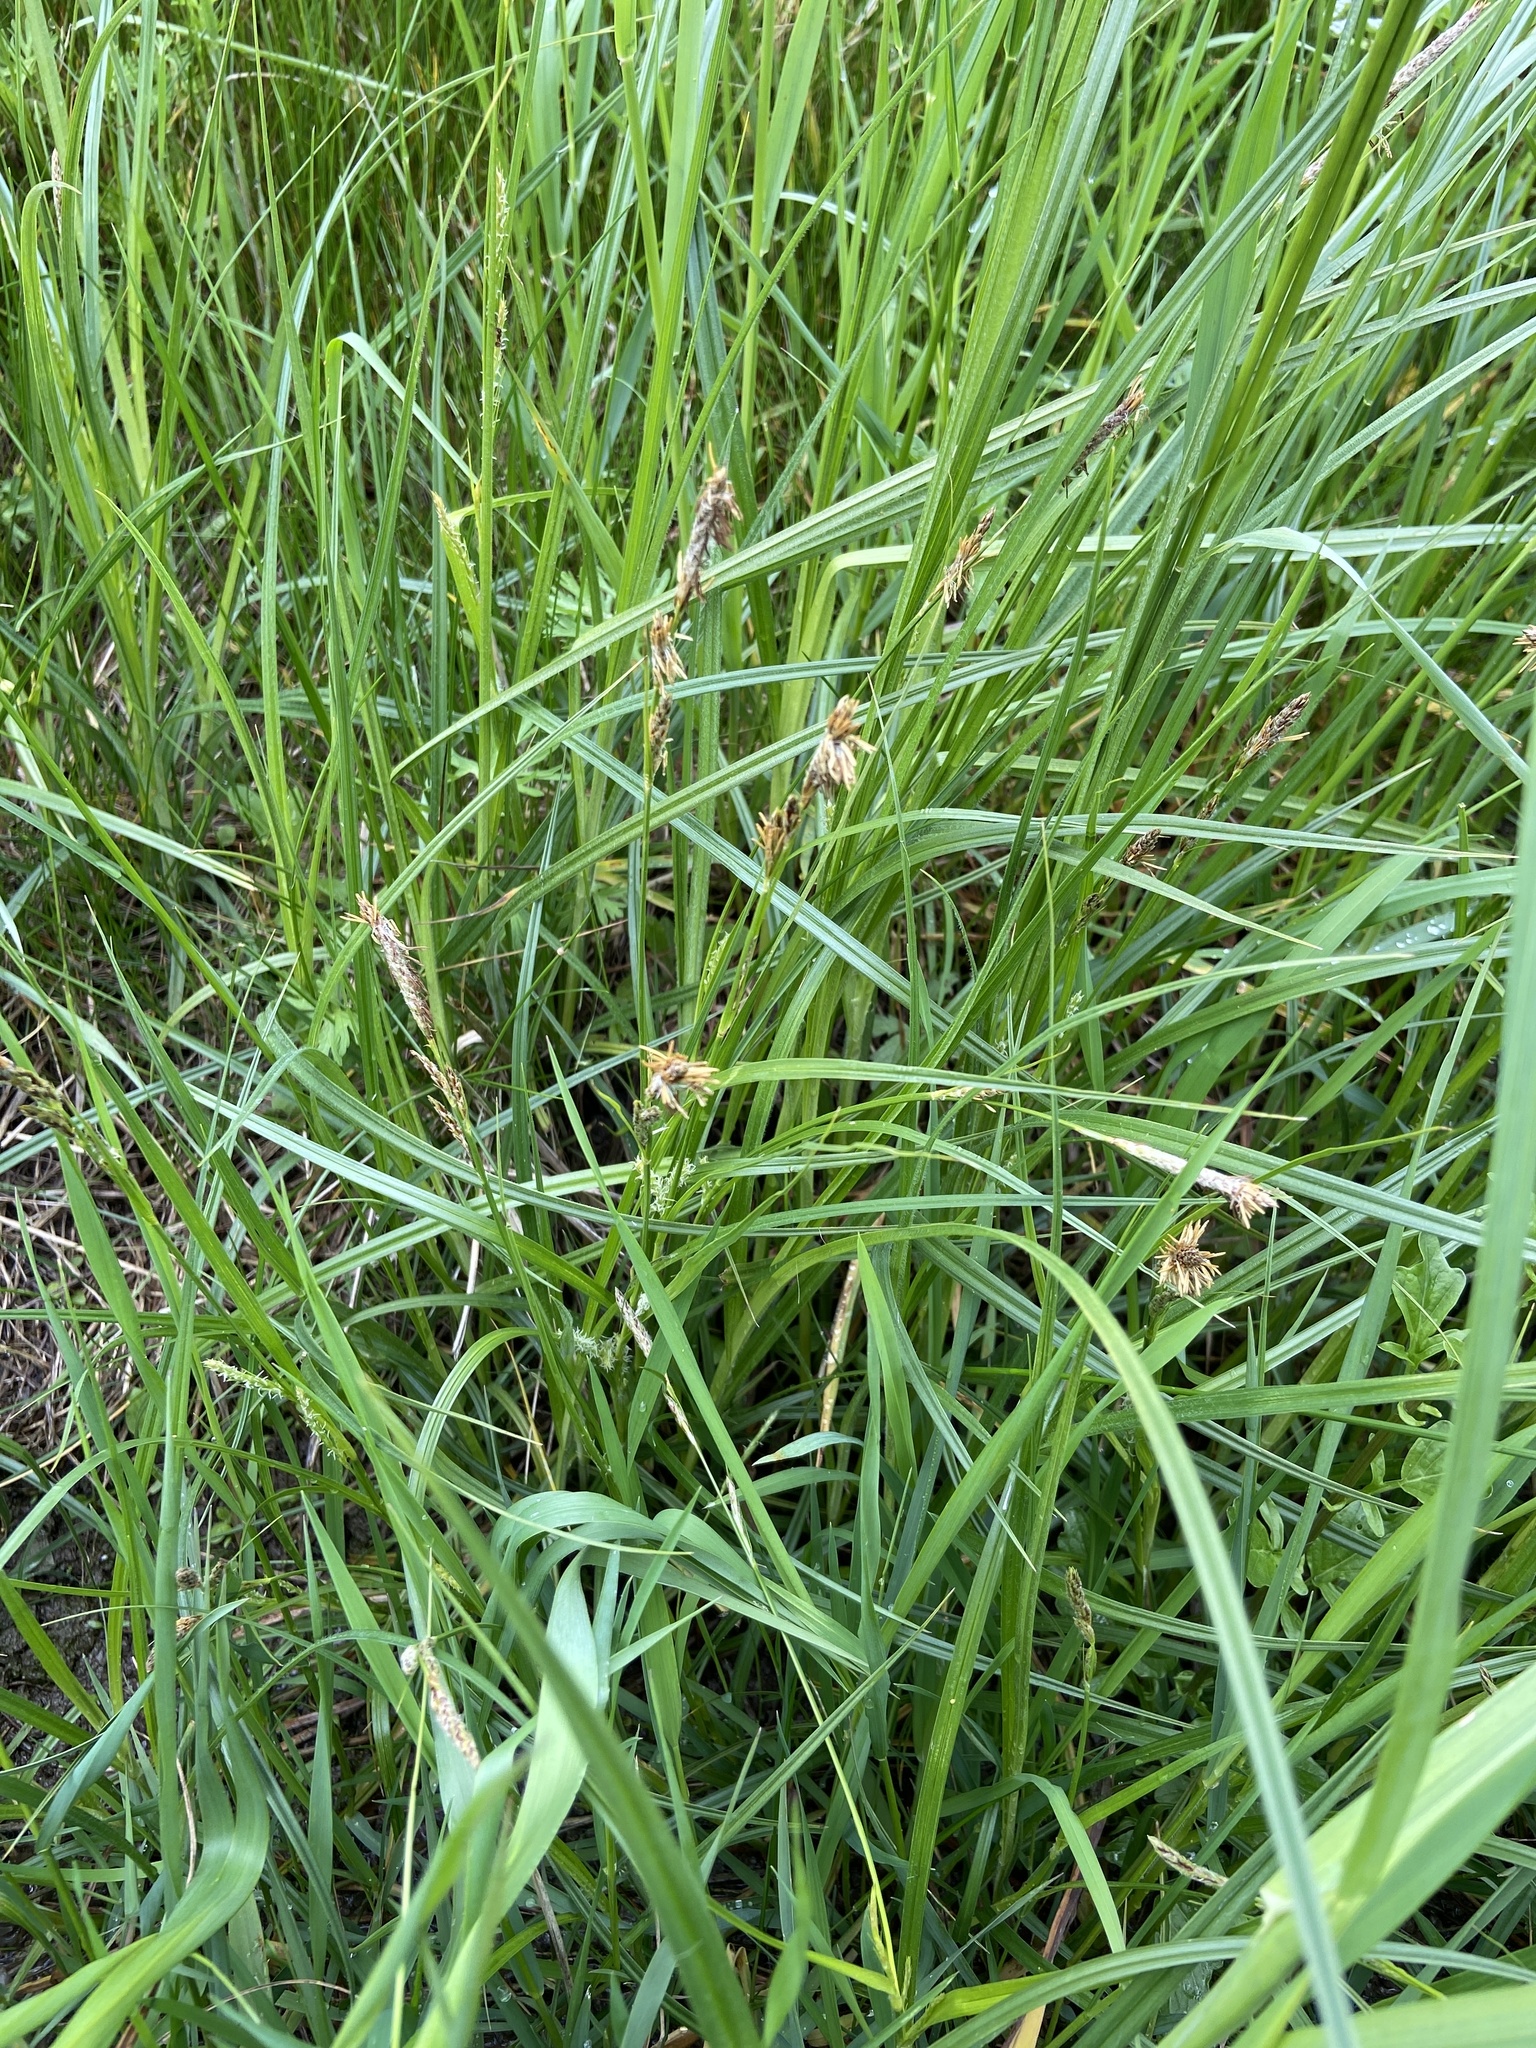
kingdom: Plantae
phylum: Tracheophyta
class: Liliopsida
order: Poales
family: Cyperaceae
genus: Carex
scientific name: Carex hirta
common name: Hairy sedge
